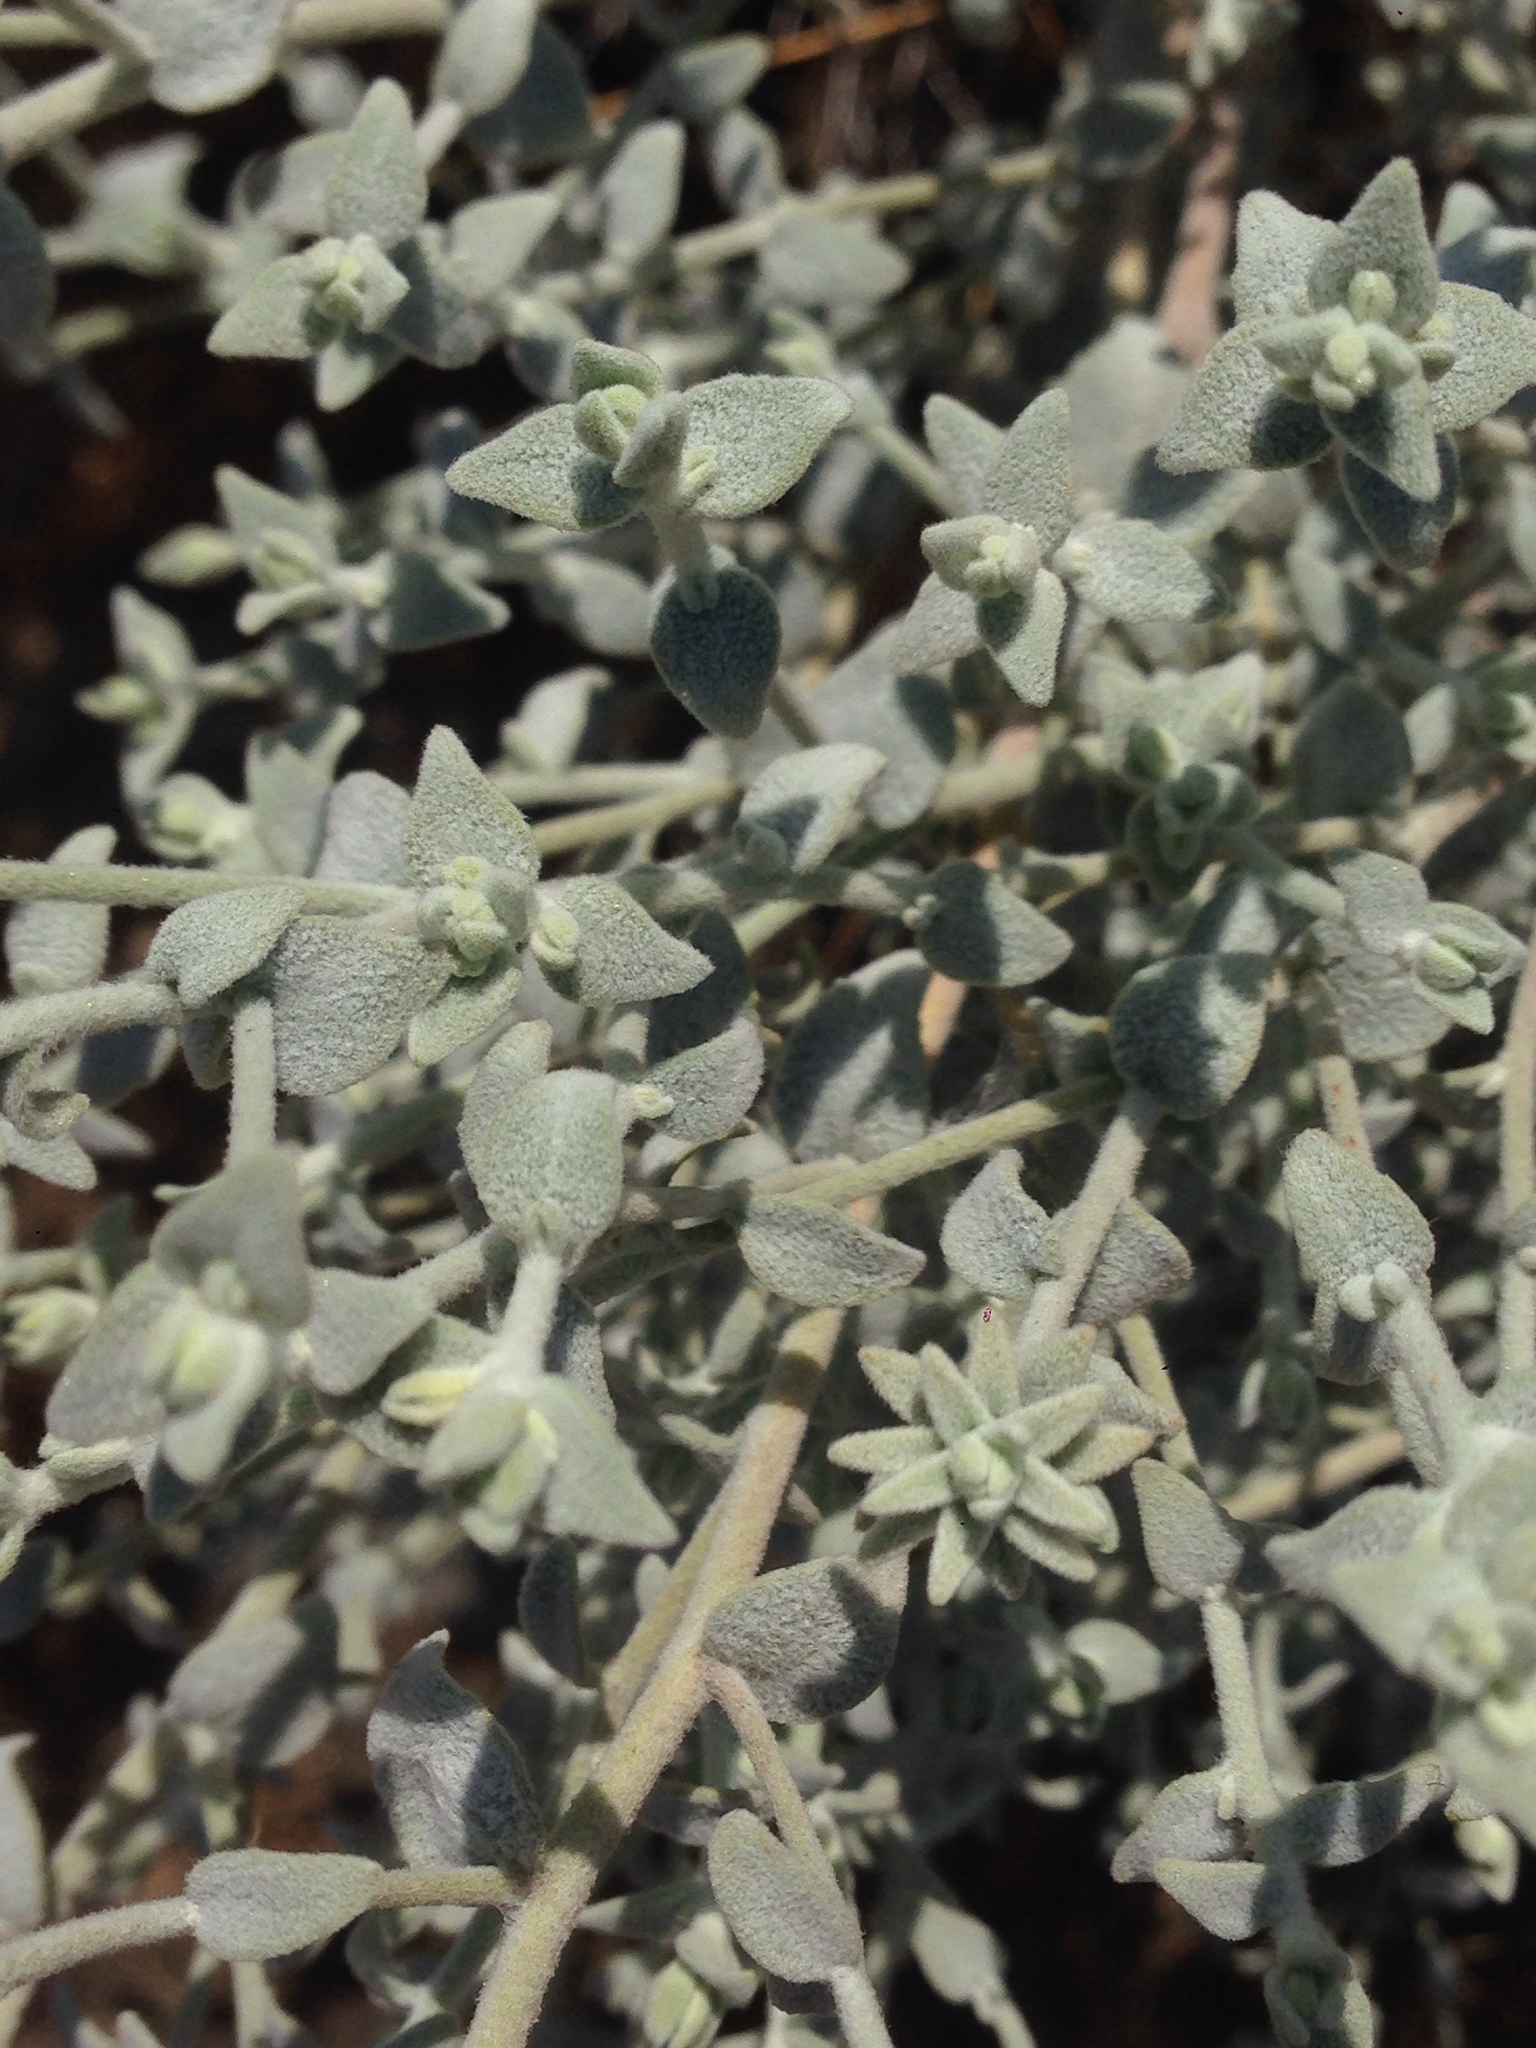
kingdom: Plantae
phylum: Tracheophyta
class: Magnoliopsida
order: Asterales
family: Asteraceae
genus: Brickellia
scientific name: Brickellia nevinii
